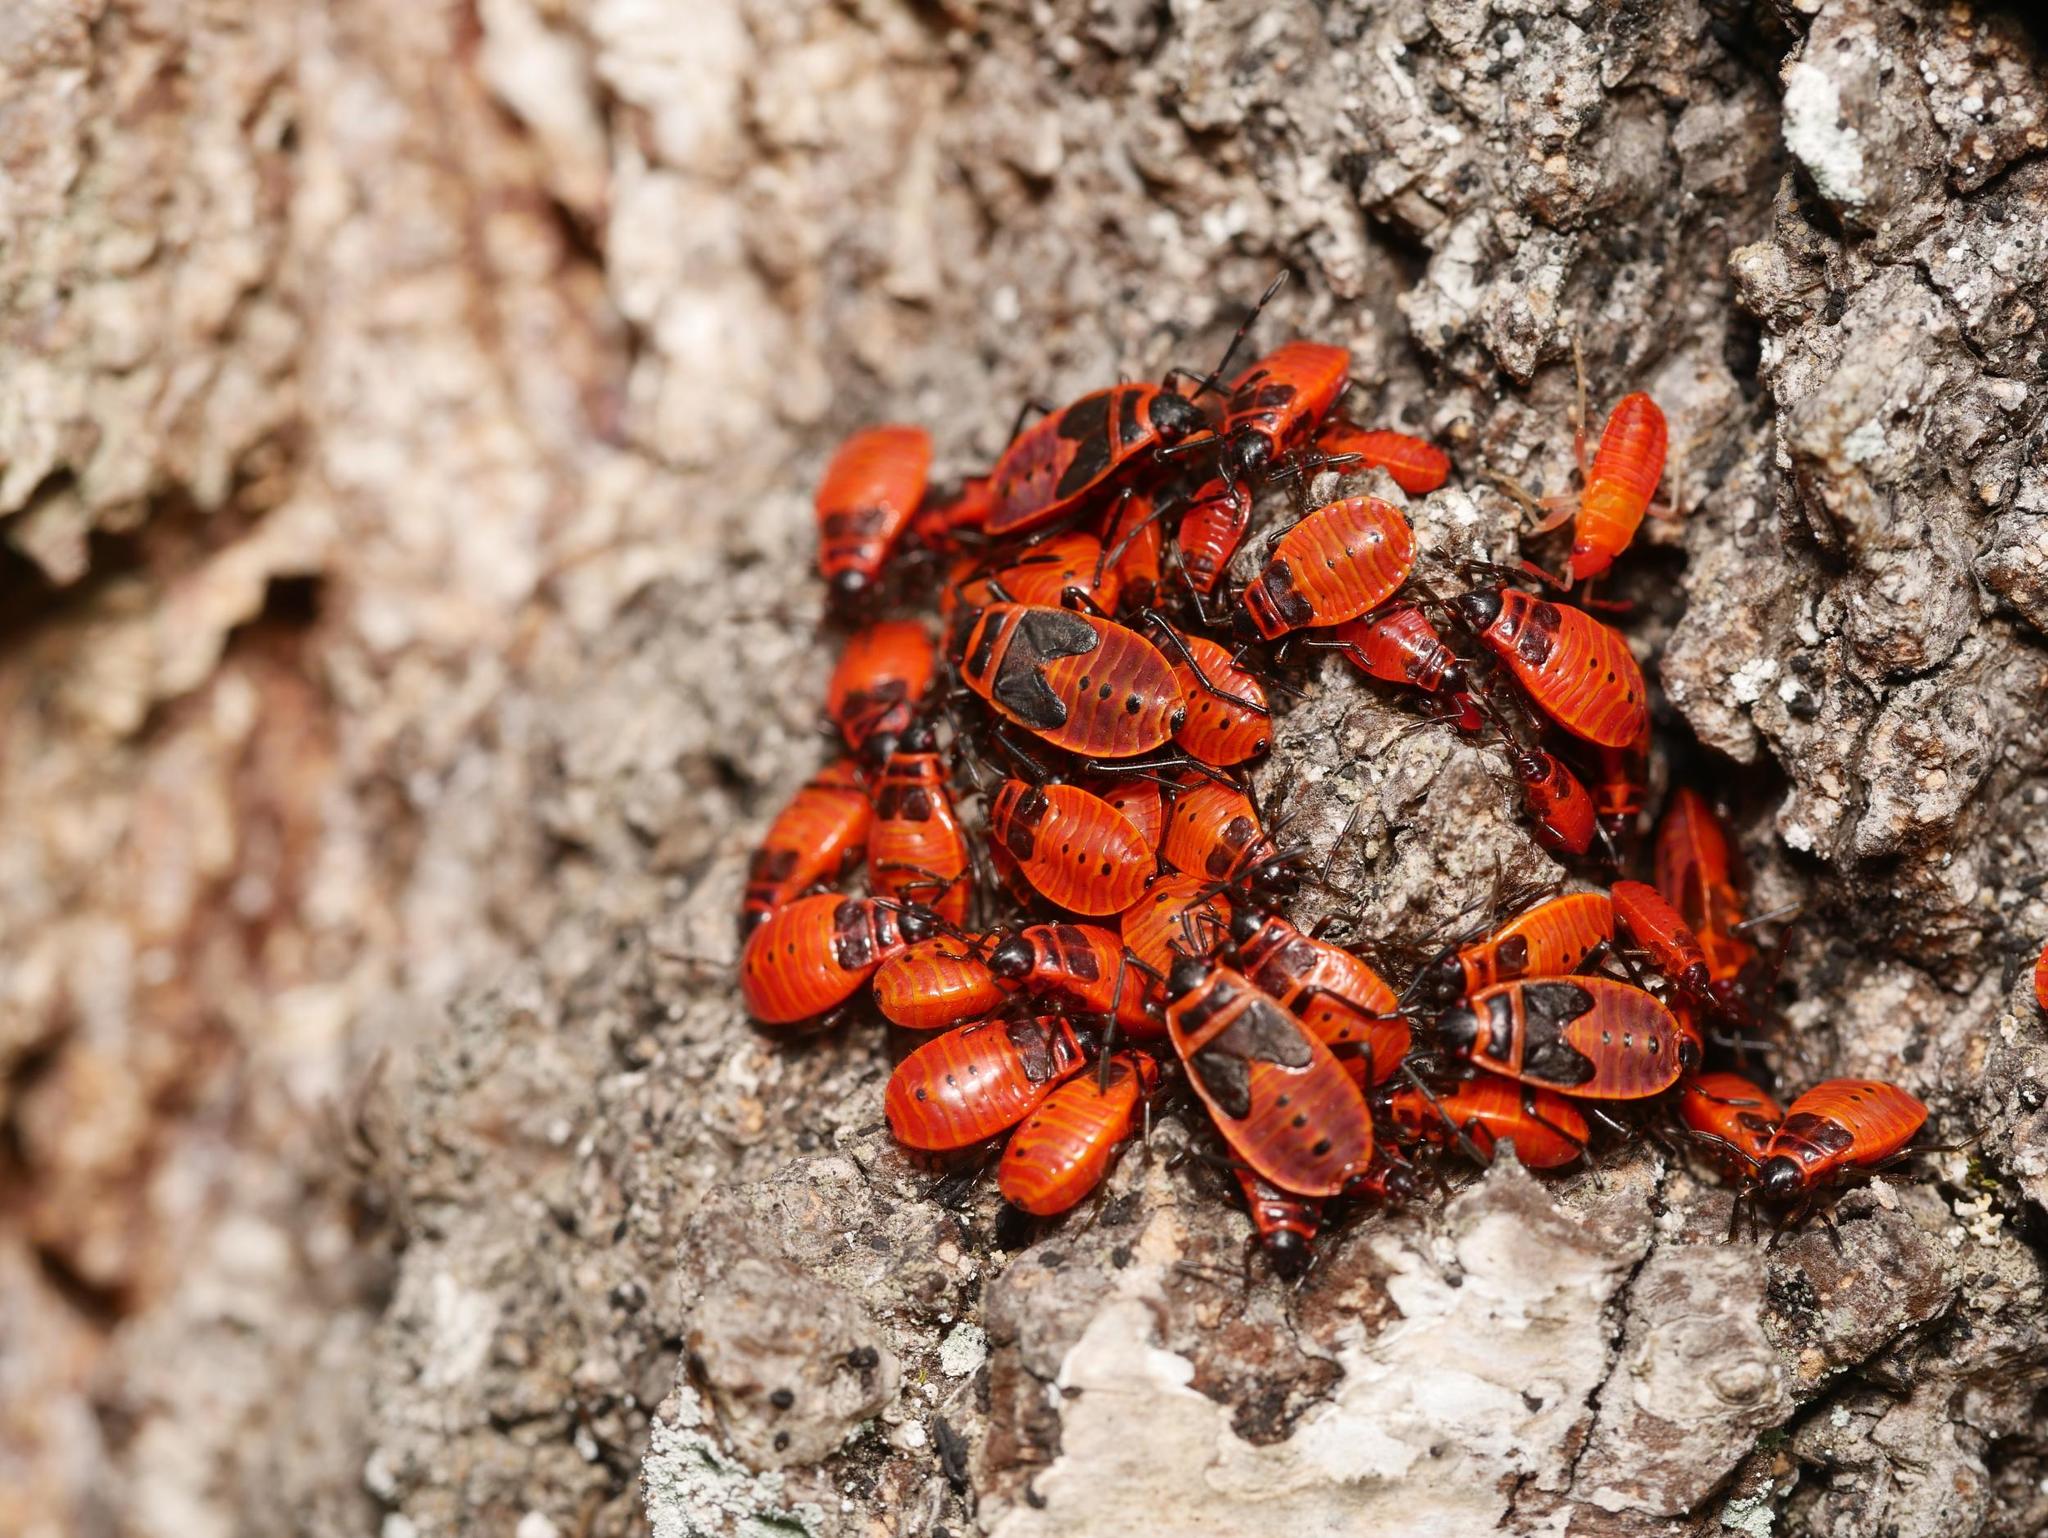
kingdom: Animalia
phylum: Arthropoda
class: Insecta
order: Hemiptera
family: Pyrrhocoridae
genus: Pyrrhocoris
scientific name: Pyrrhocoris apterus
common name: Firebug
